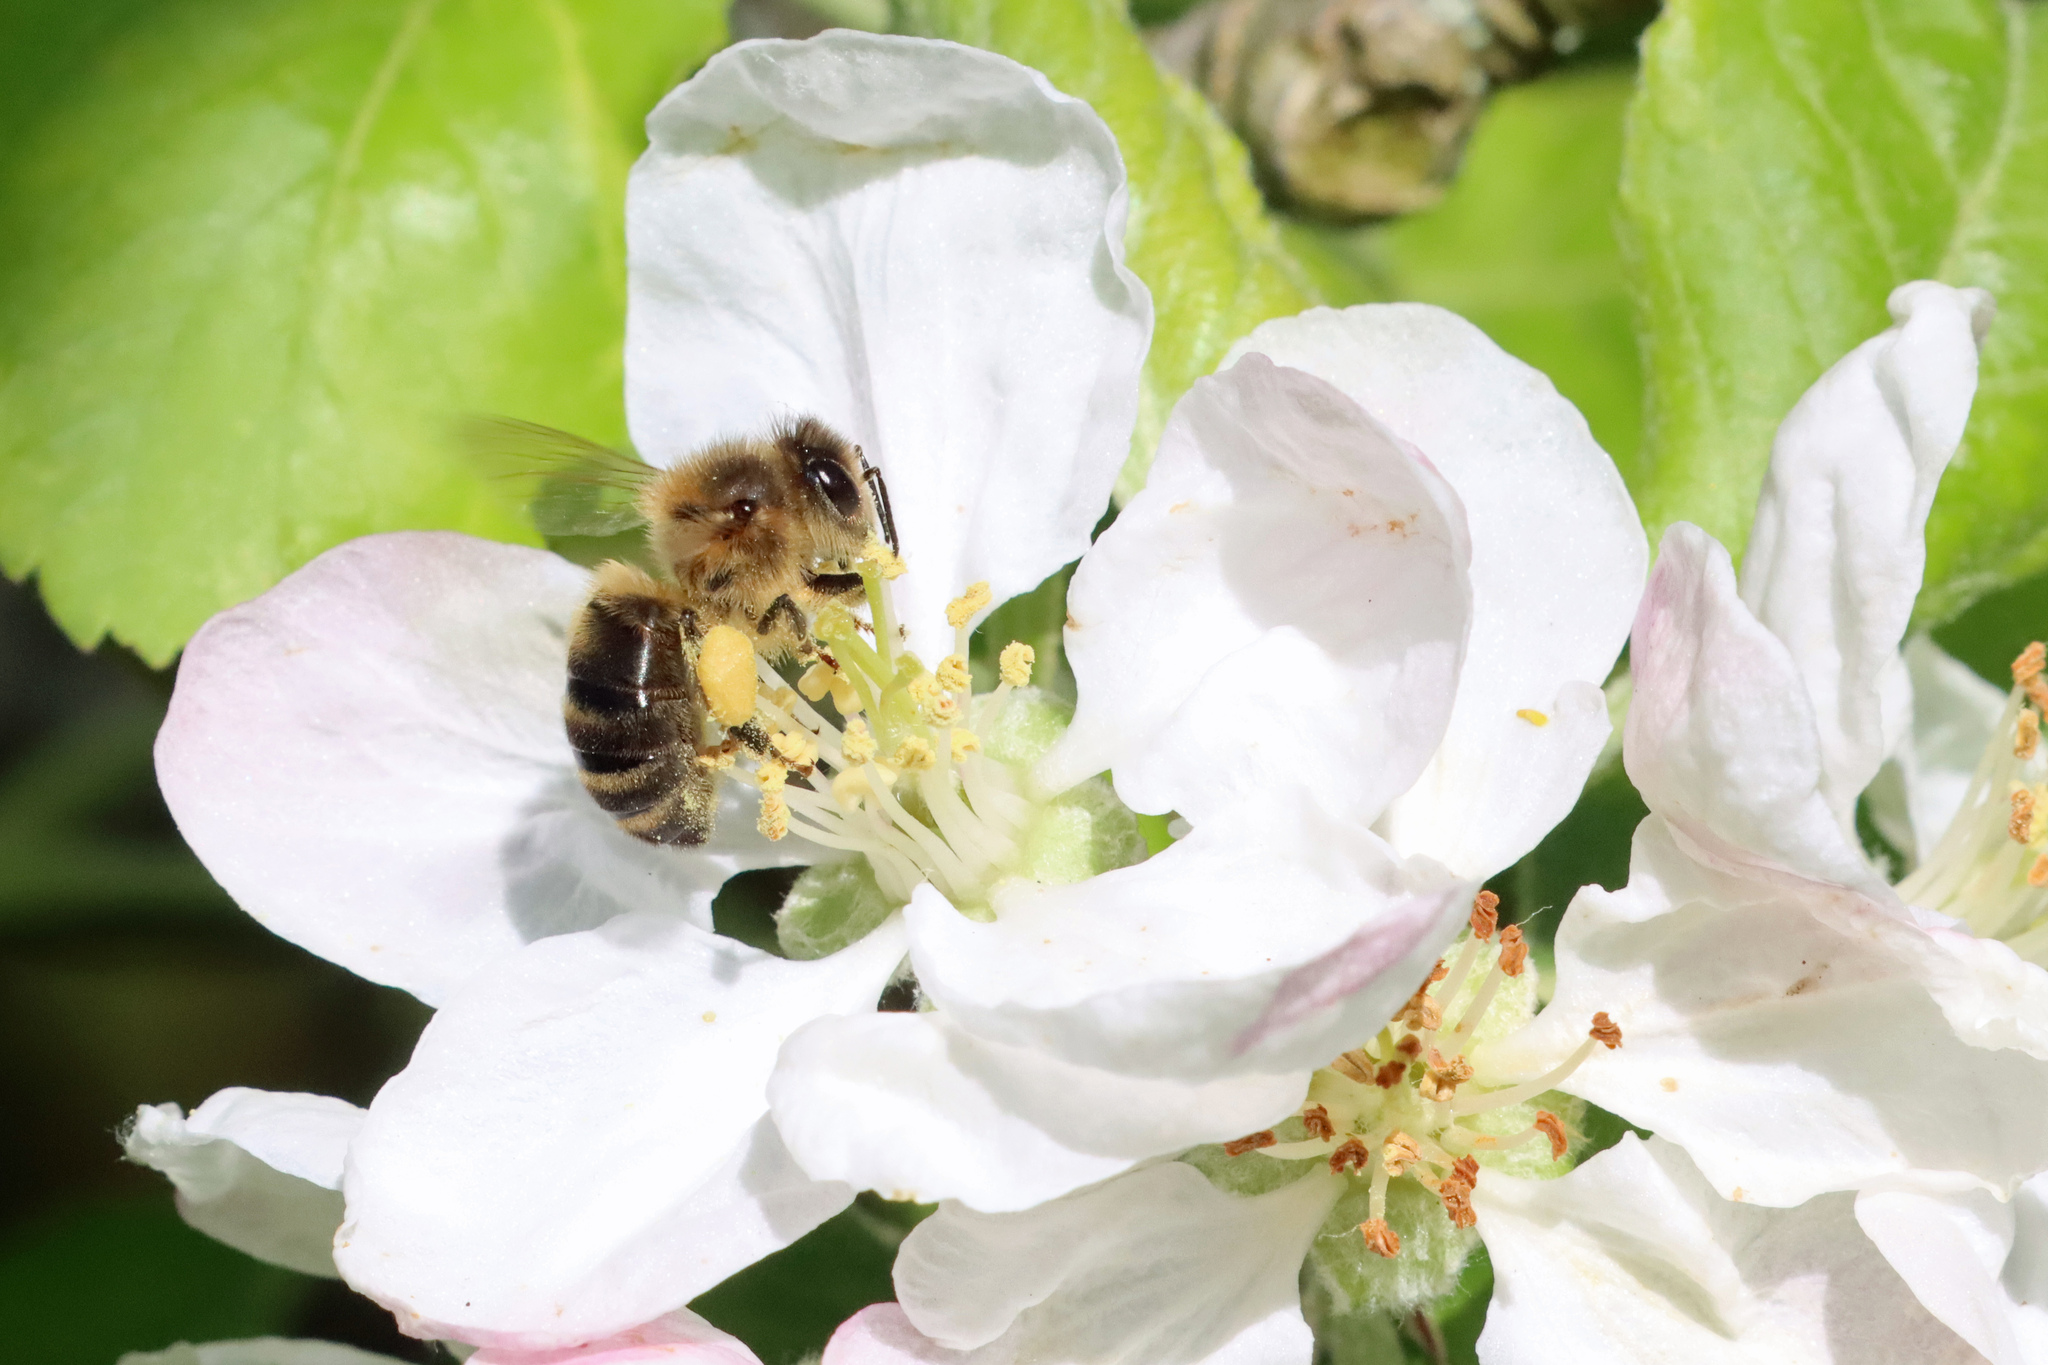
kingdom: Animalia
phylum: Arthropoda
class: Insecta
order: Hymenoptera
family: Apidae
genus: Apis
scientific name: Apis mellifera
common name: Honey bee
